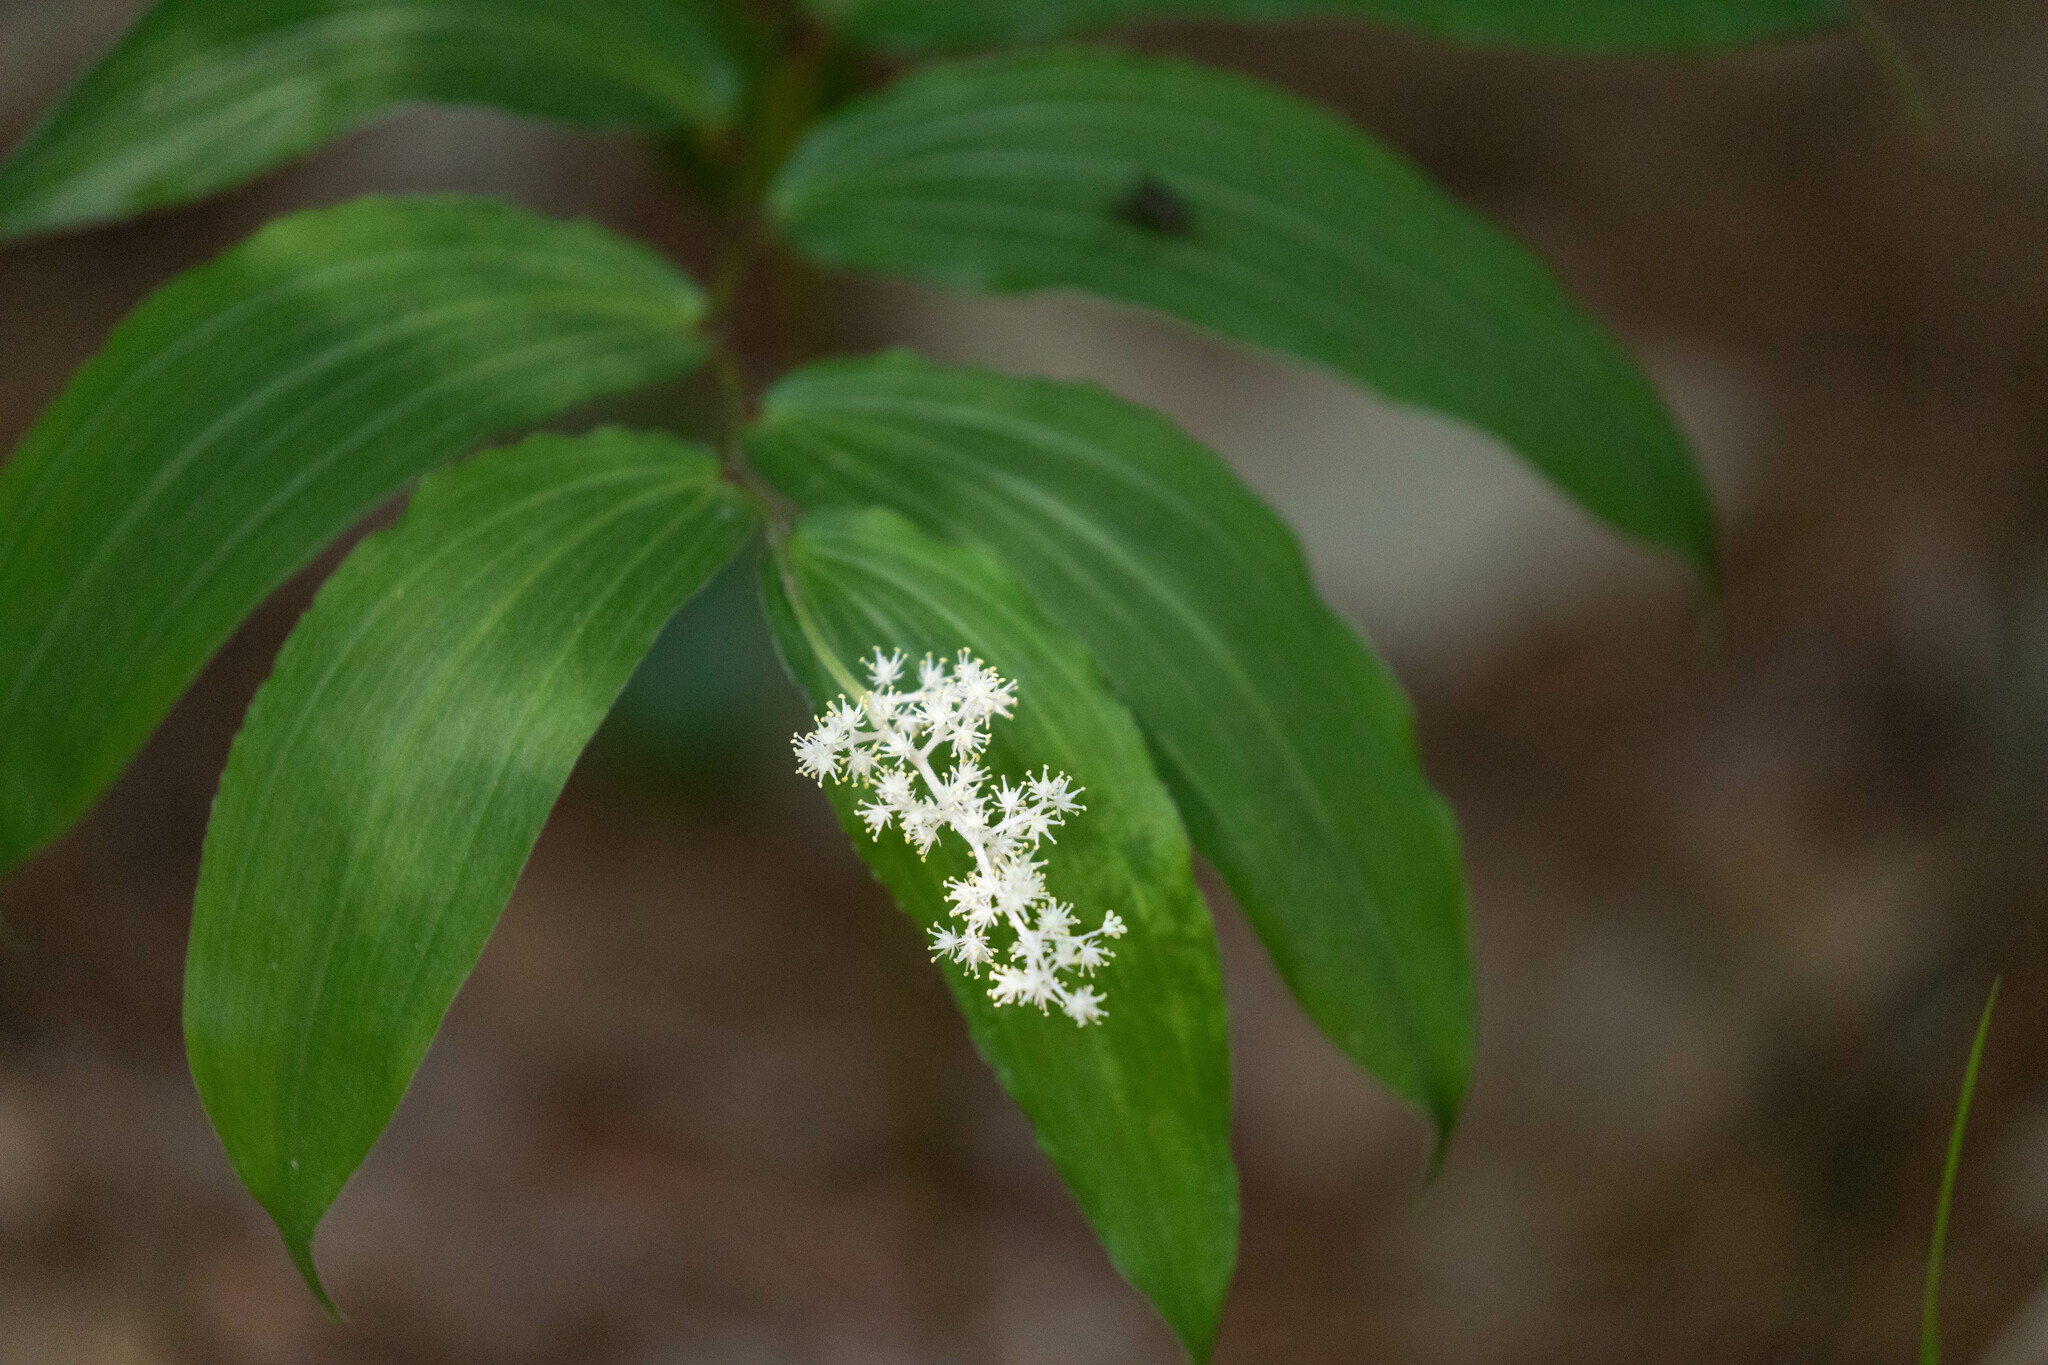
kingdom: Plantae
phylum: Tracheophyta
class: Liliopsida
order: Asparagales
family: Asparagaceae
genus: Maianthemum
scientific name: Maianthemum racemosum
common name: False spikenard
